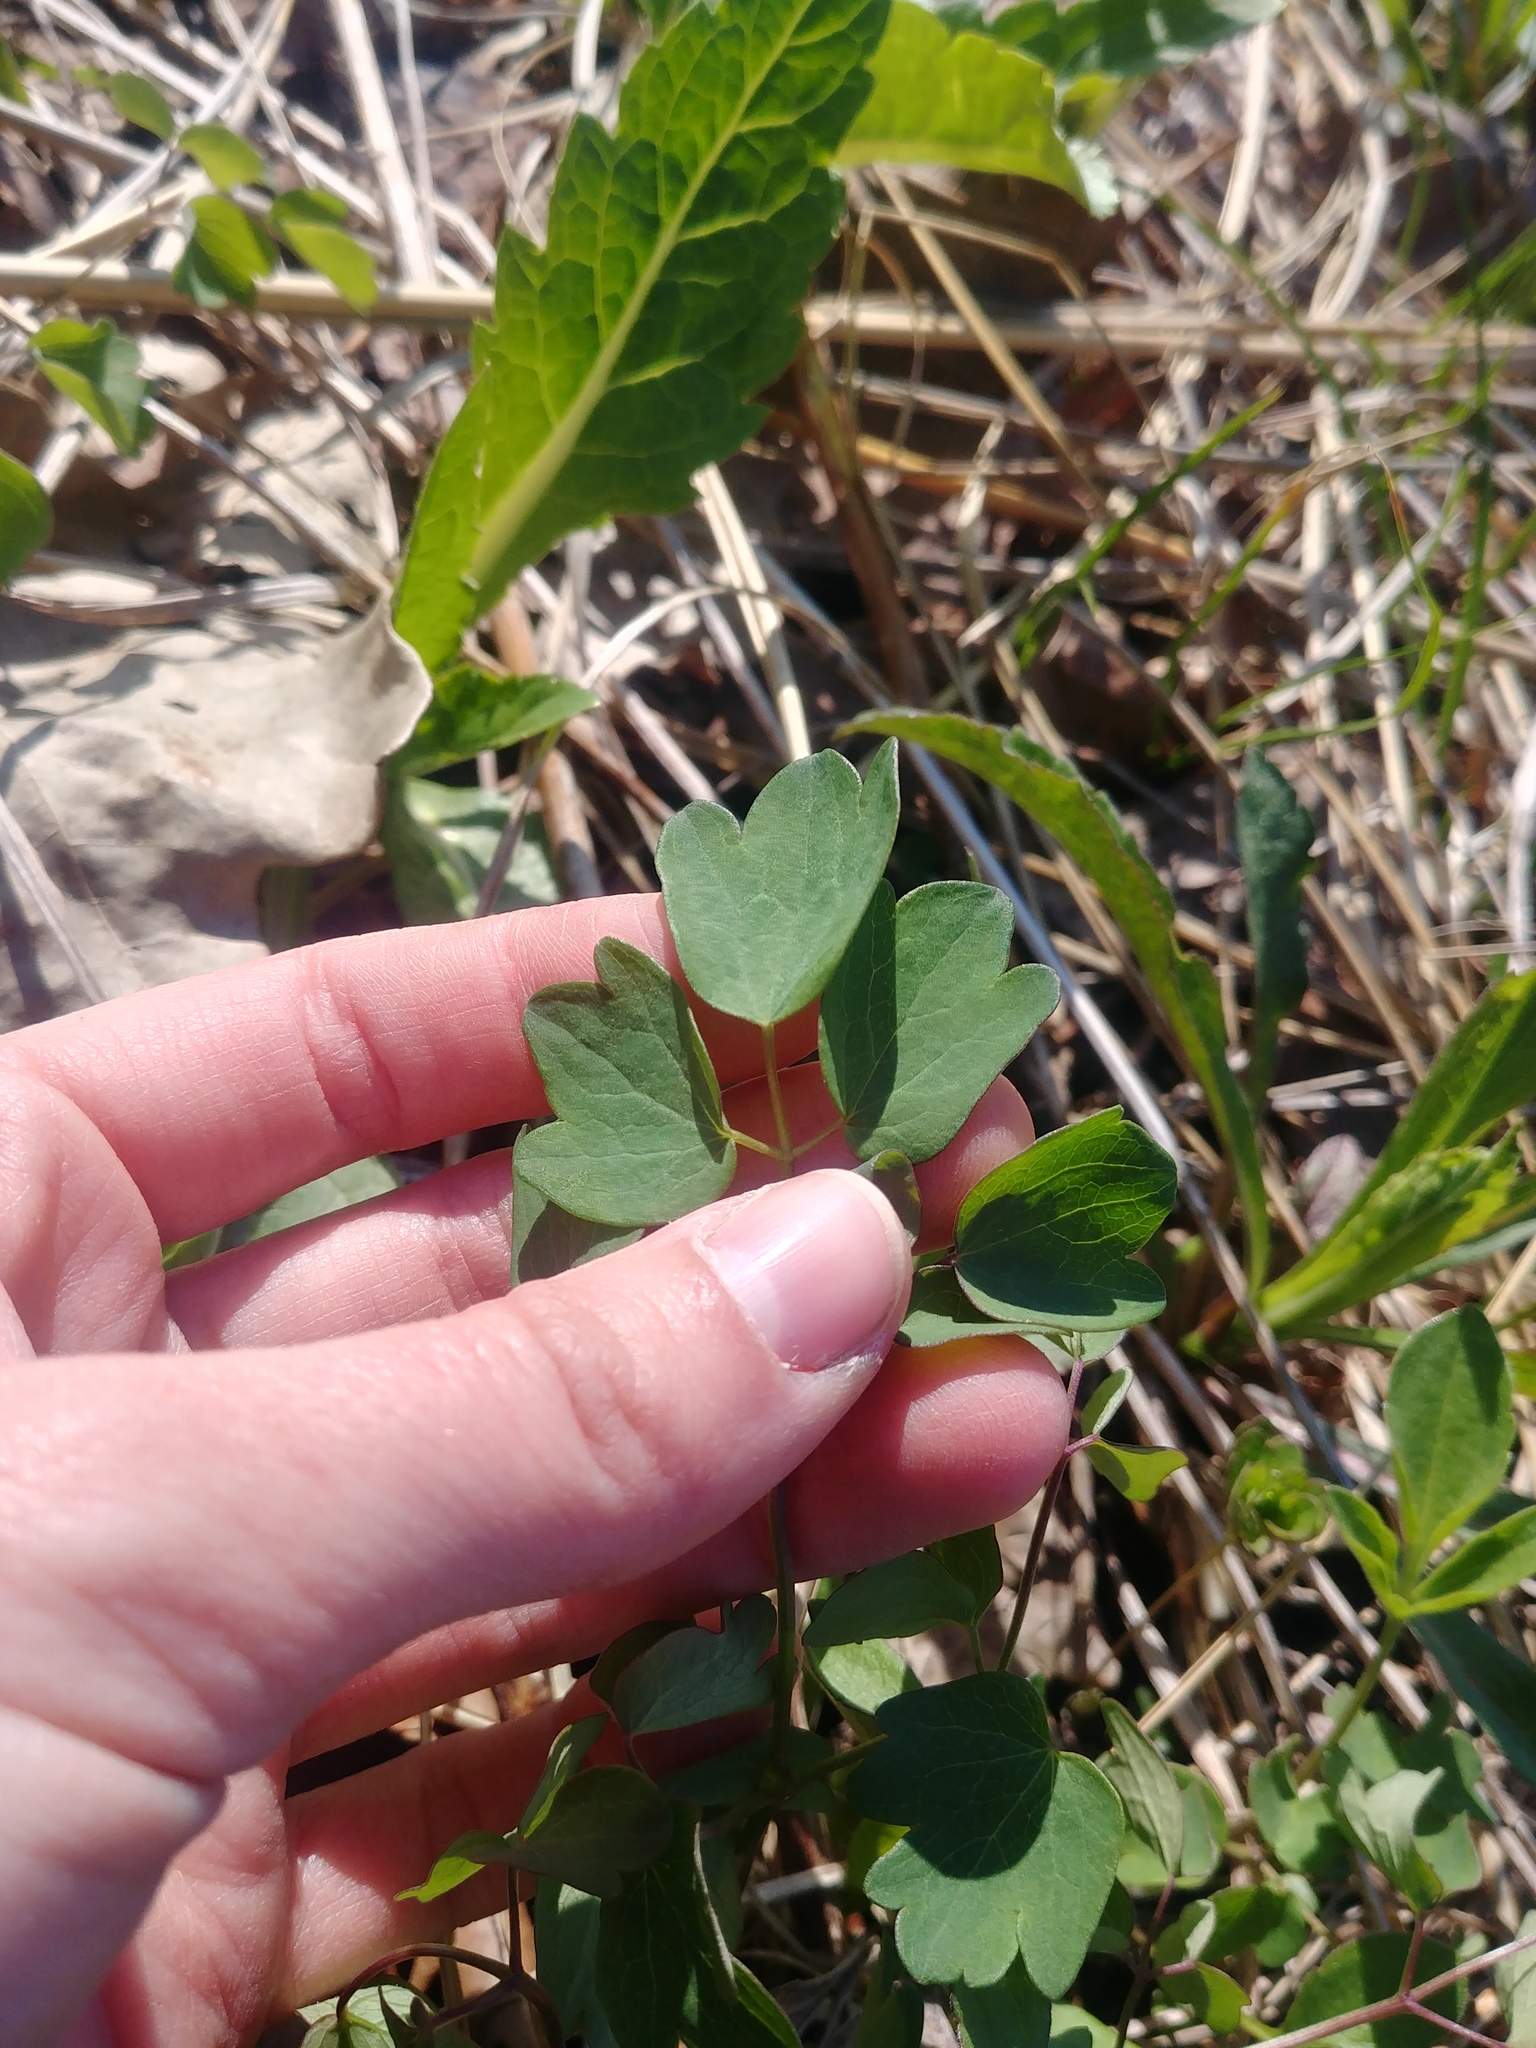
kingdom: Plantae
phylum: Tracheophyta
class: Magnoliopsida
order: Ranunculales
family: Ranunculaceae
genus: Thalictrum
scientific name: Thalictrum dasycarpum
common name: Purple meadow-rue
